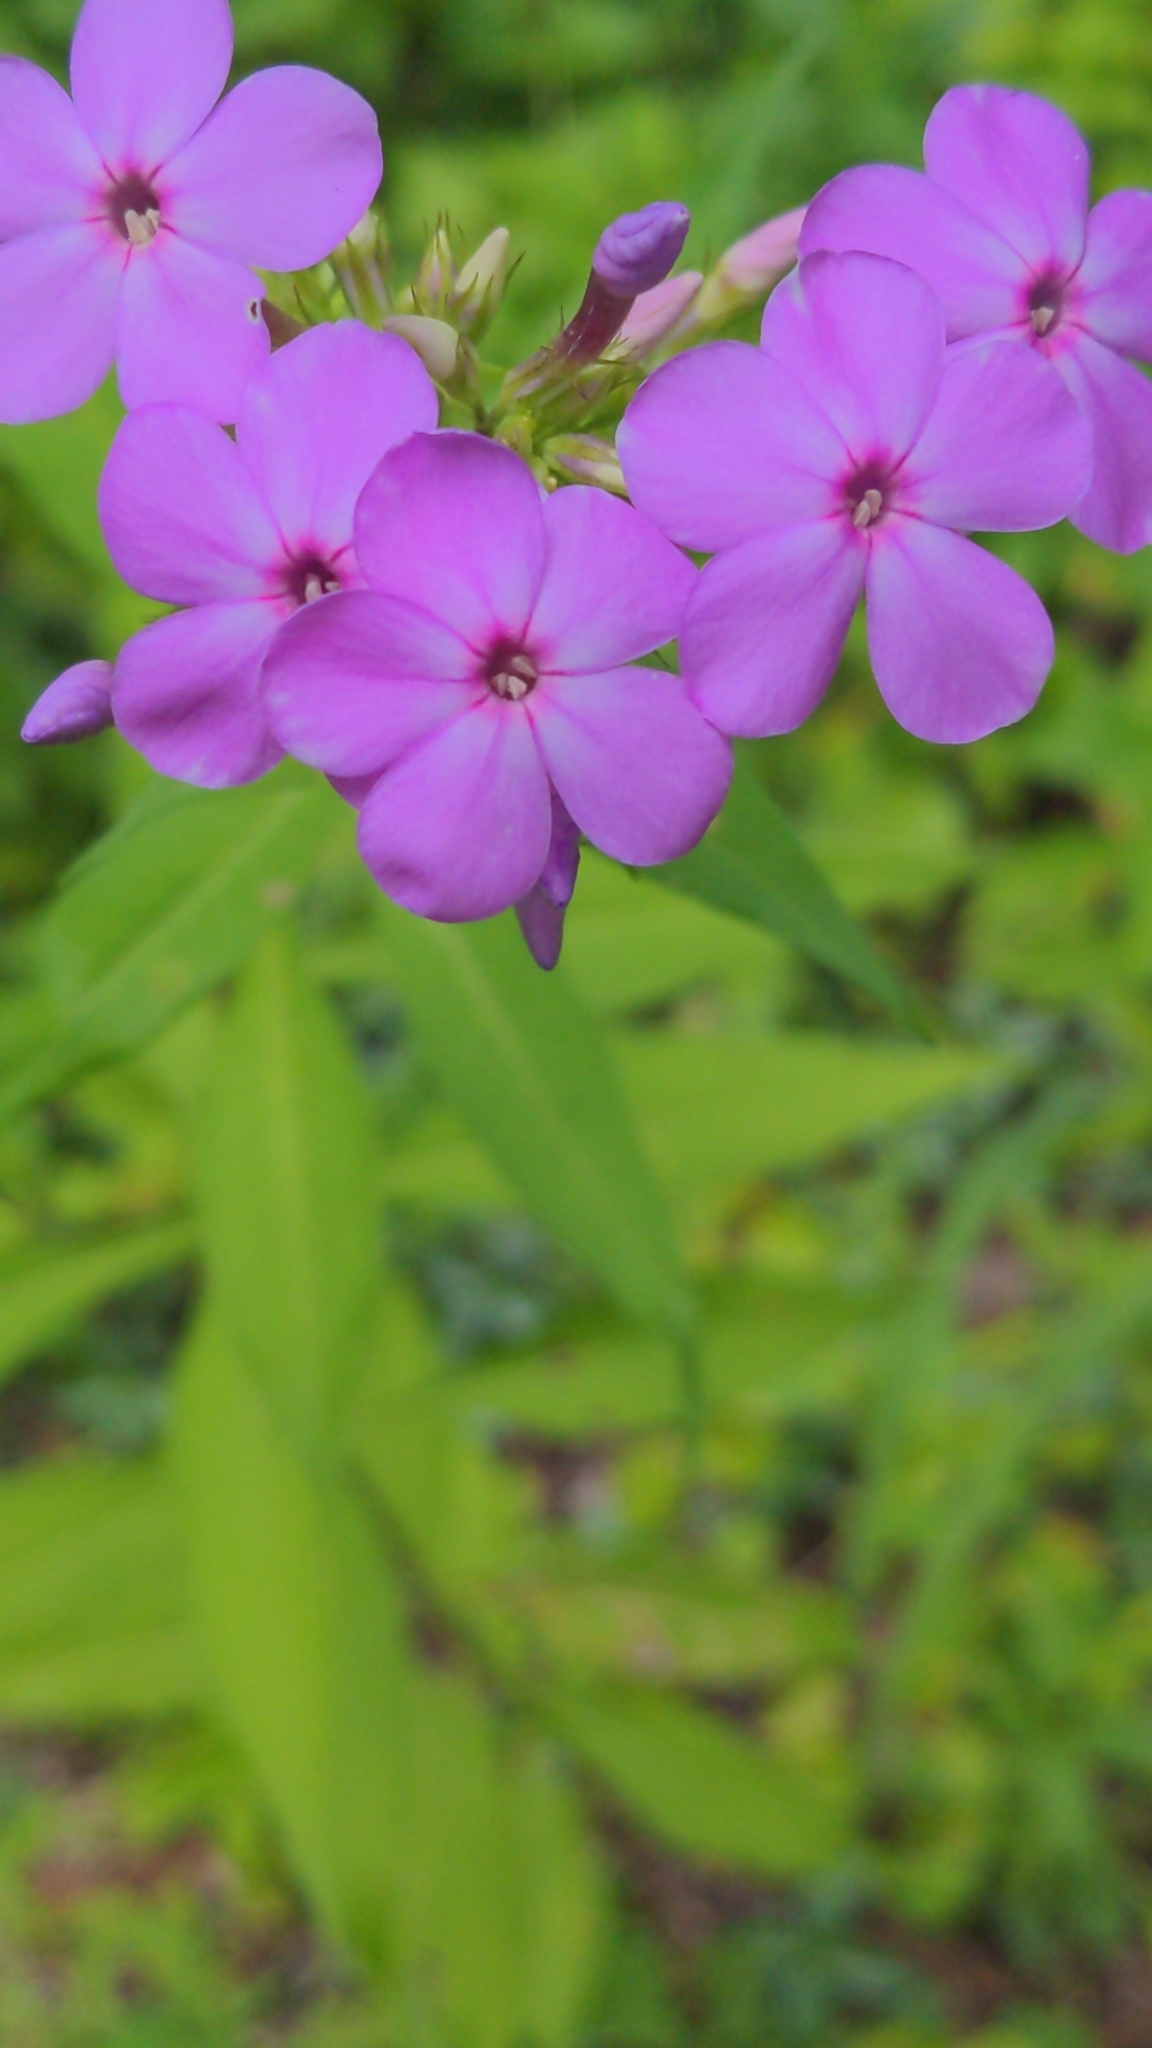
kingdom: Plantae
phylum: Tracheophyta
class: Magnoliopsida
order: Ericales
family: Polemoniaceae
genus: Phlox
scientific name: Phlox paniculata
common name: Fall phlox
